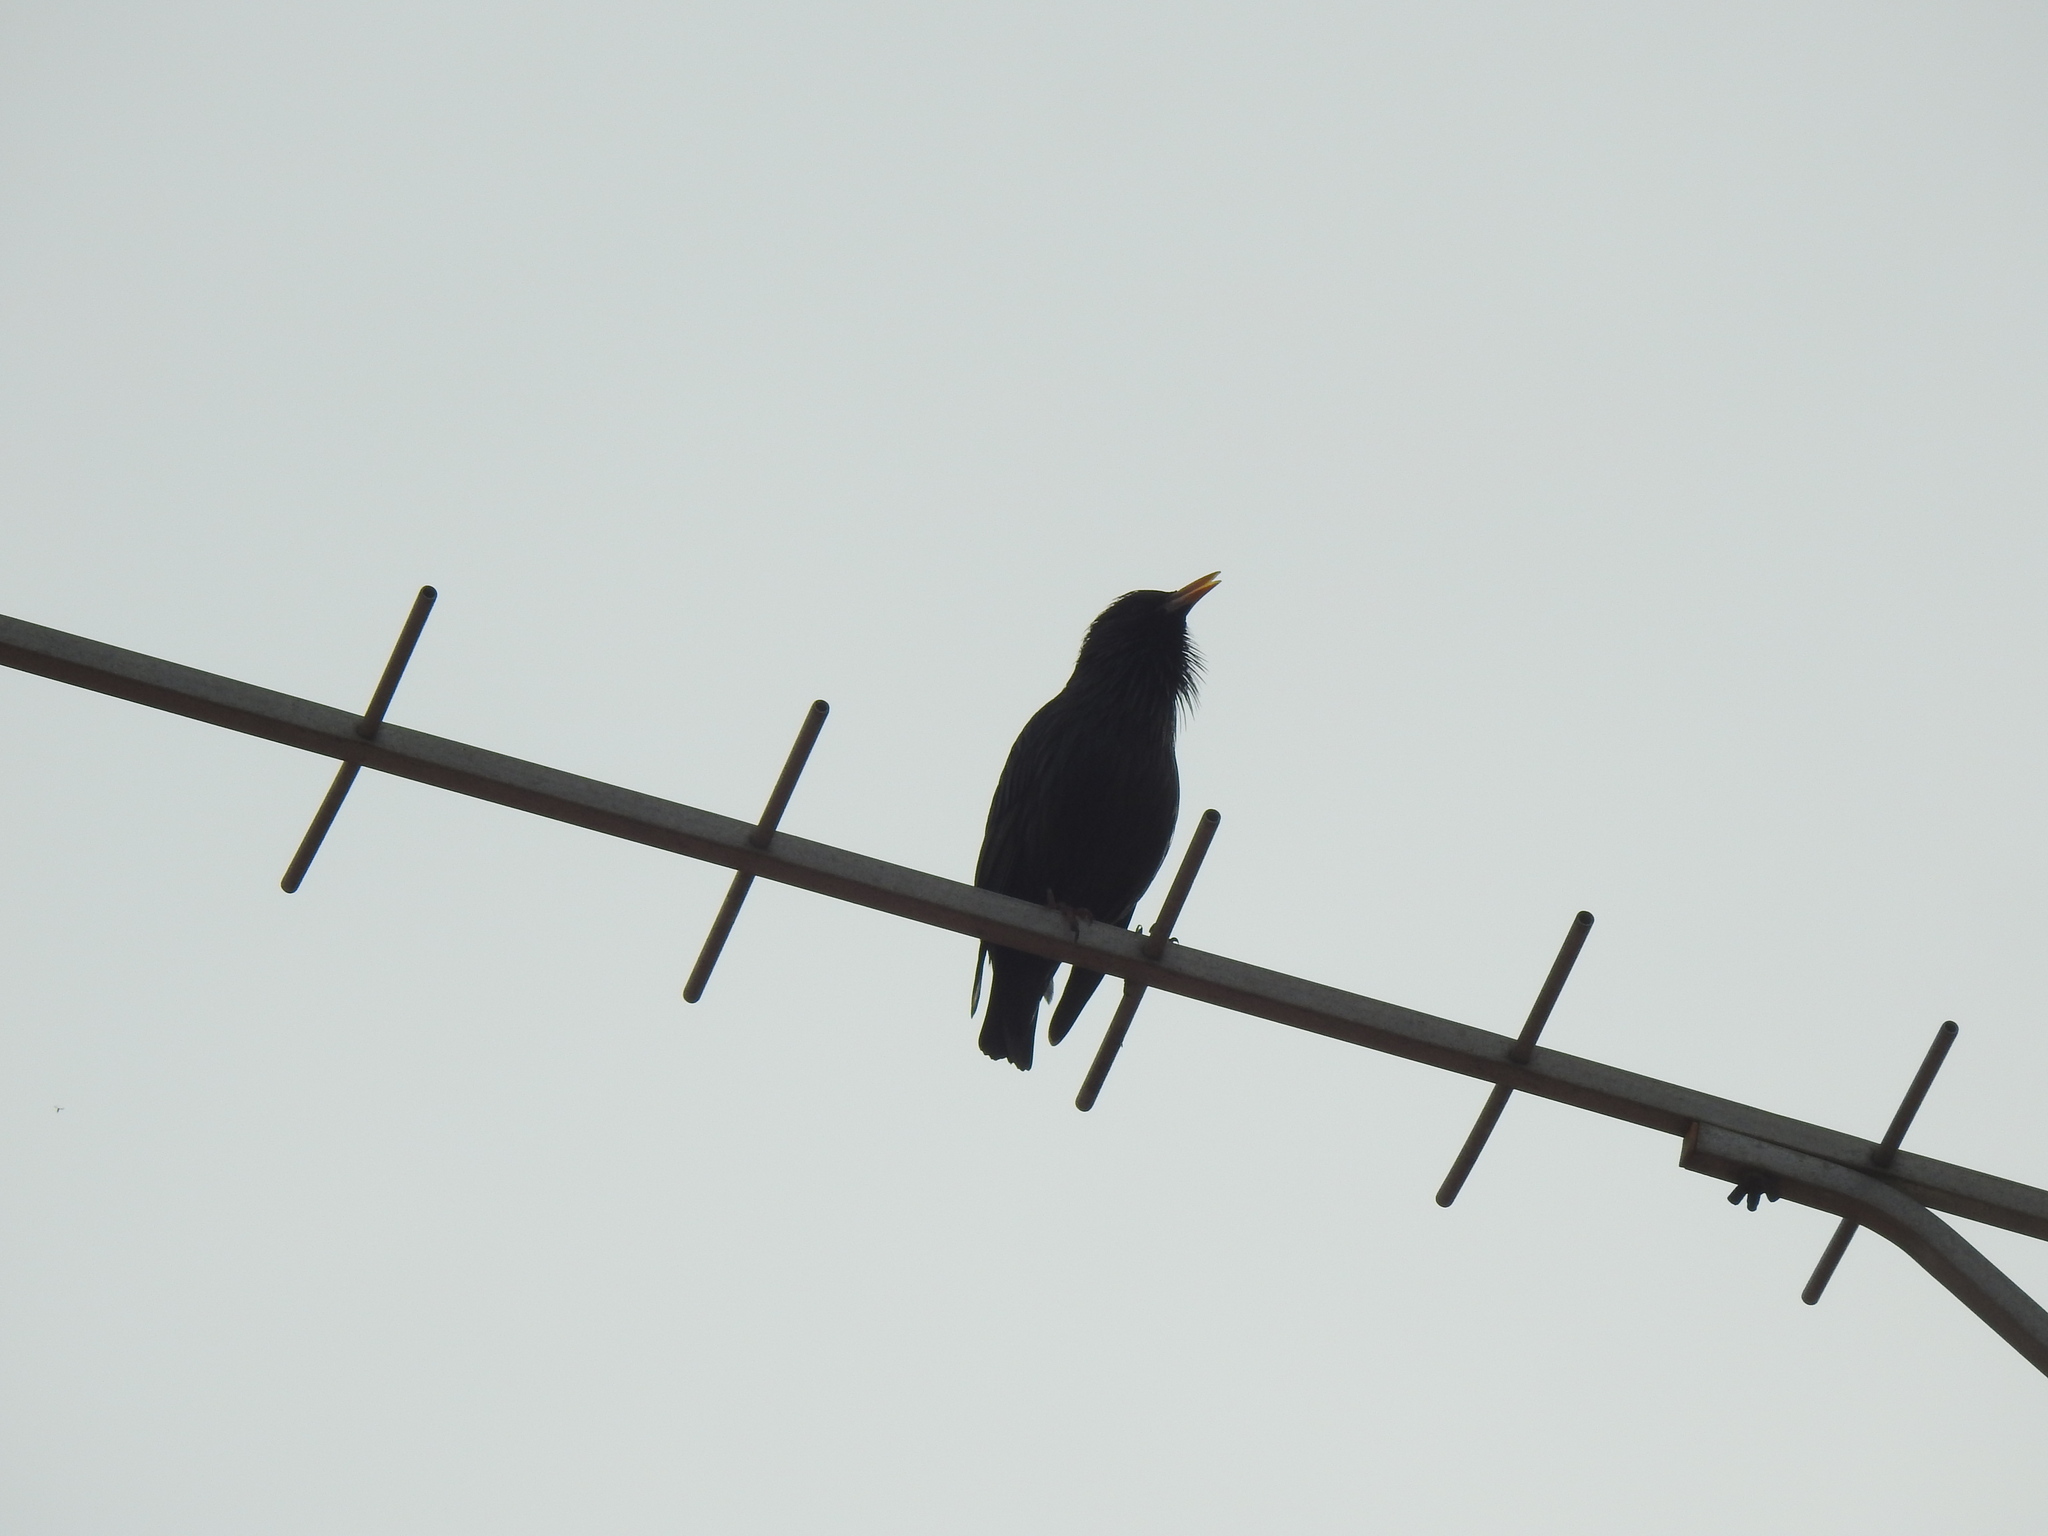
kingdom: Animalia
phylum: Chordata
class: Aves
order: Passeriformes
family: Sturnidae
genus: Sturnus
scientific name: Sturnus unicolor
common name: Spotless starling
